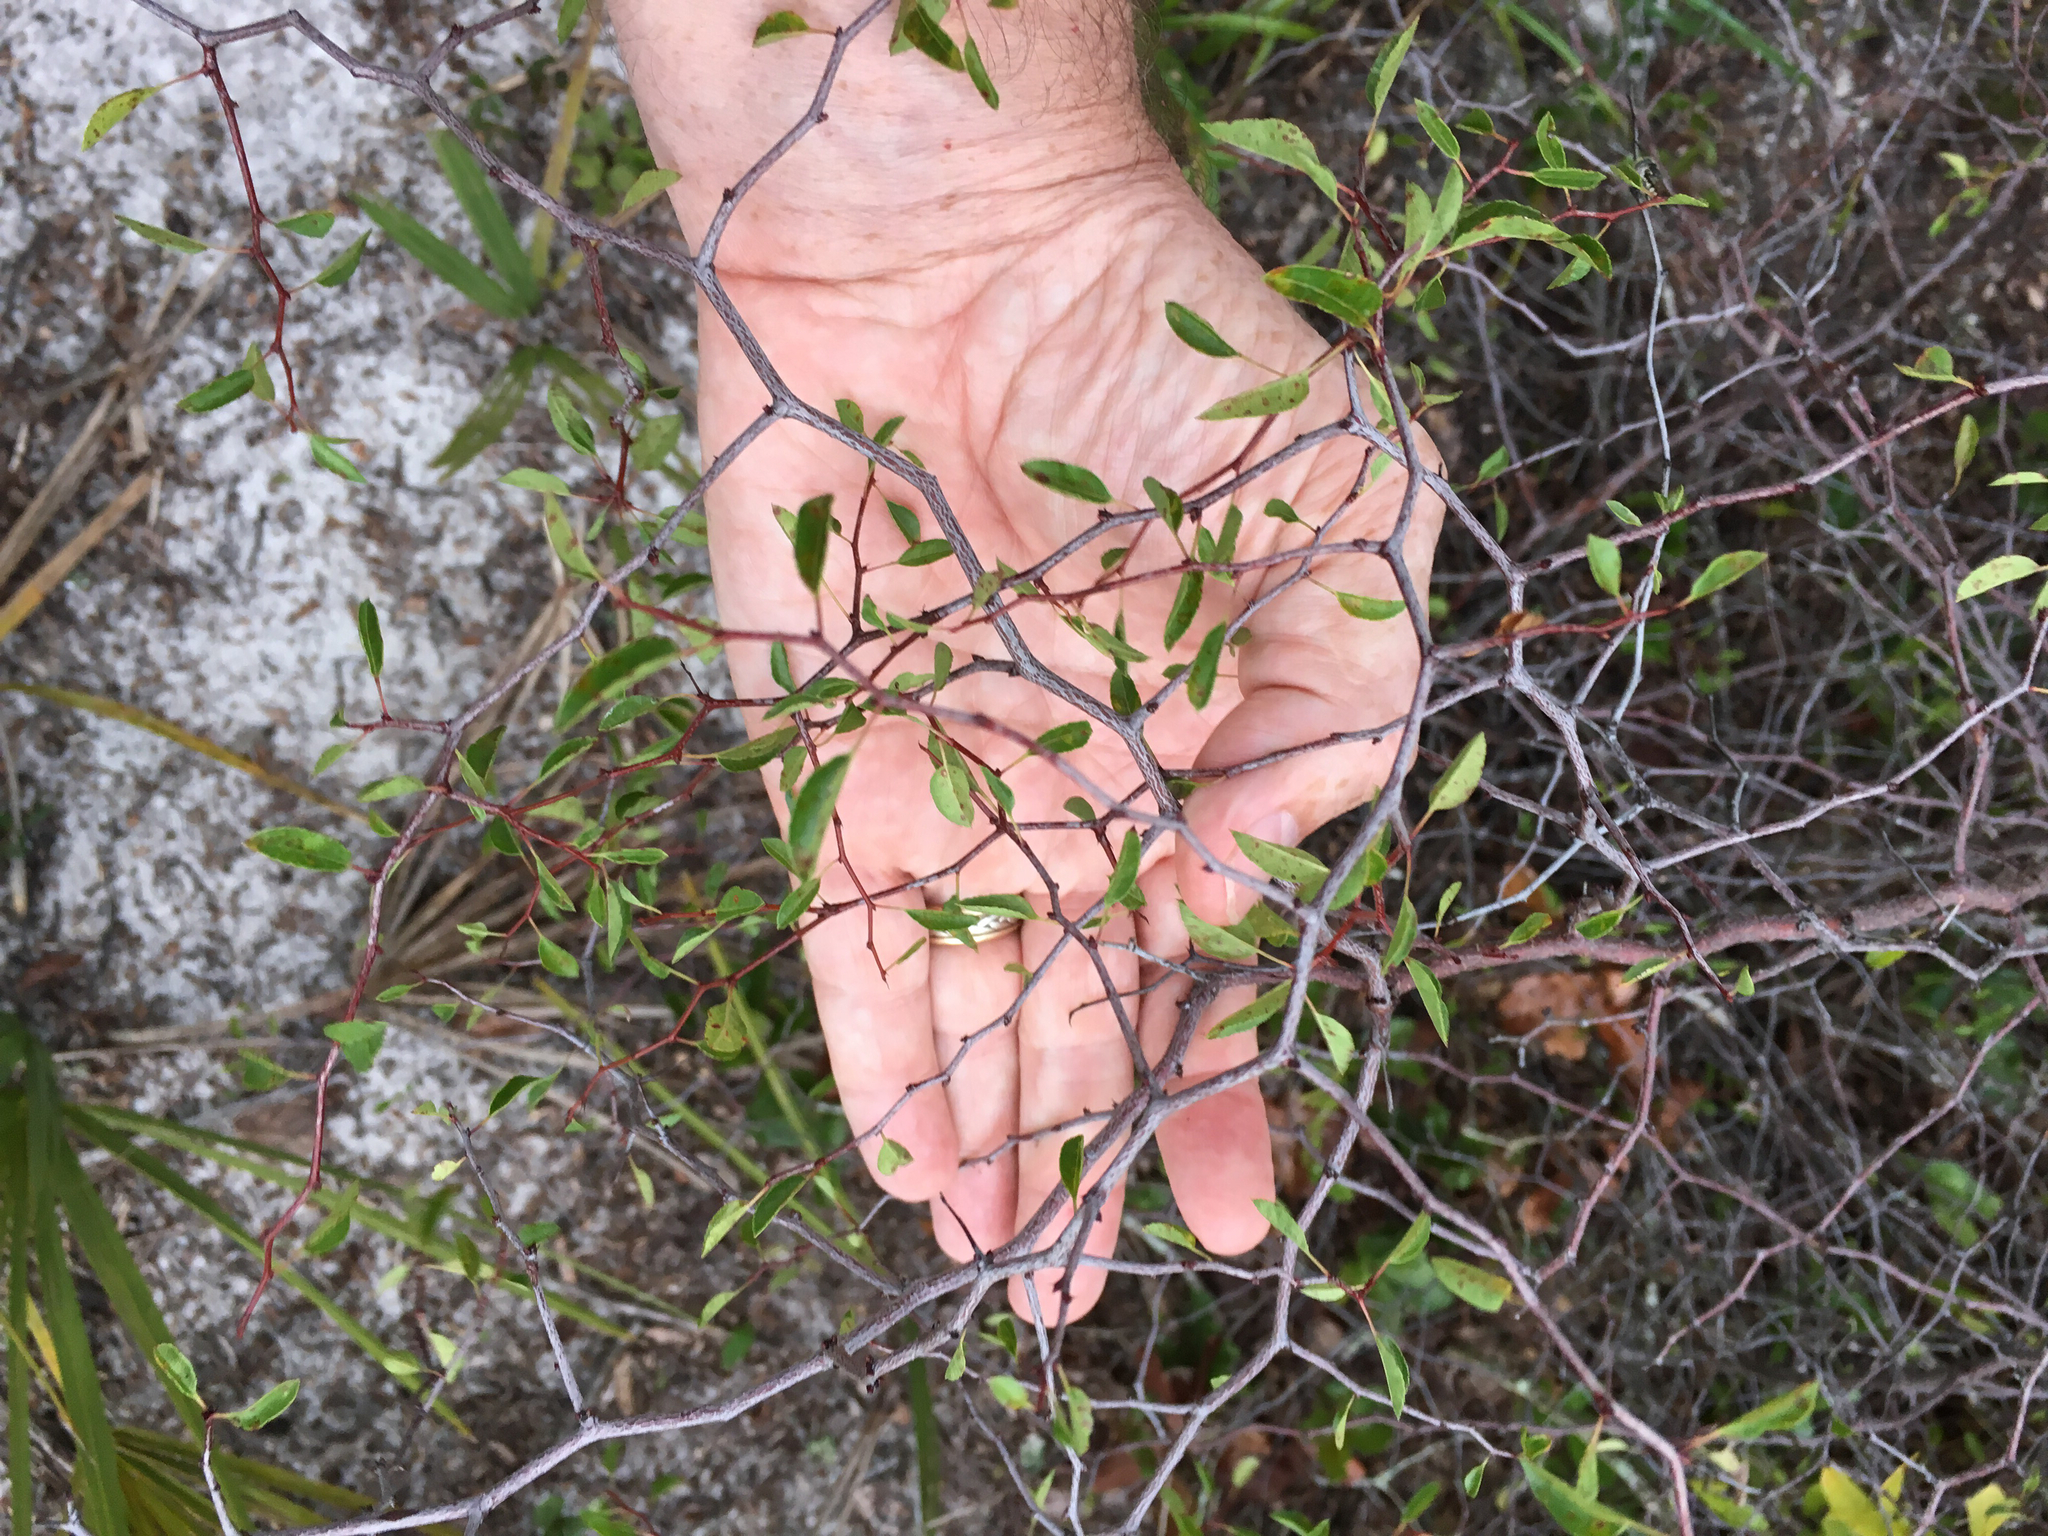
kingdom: Plantae
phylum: Tracheophyta
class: Magnoliopsida
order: Rosales
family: Rosaceae
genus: Prunus
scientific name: Prunus geniculata
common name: Scrub plum
